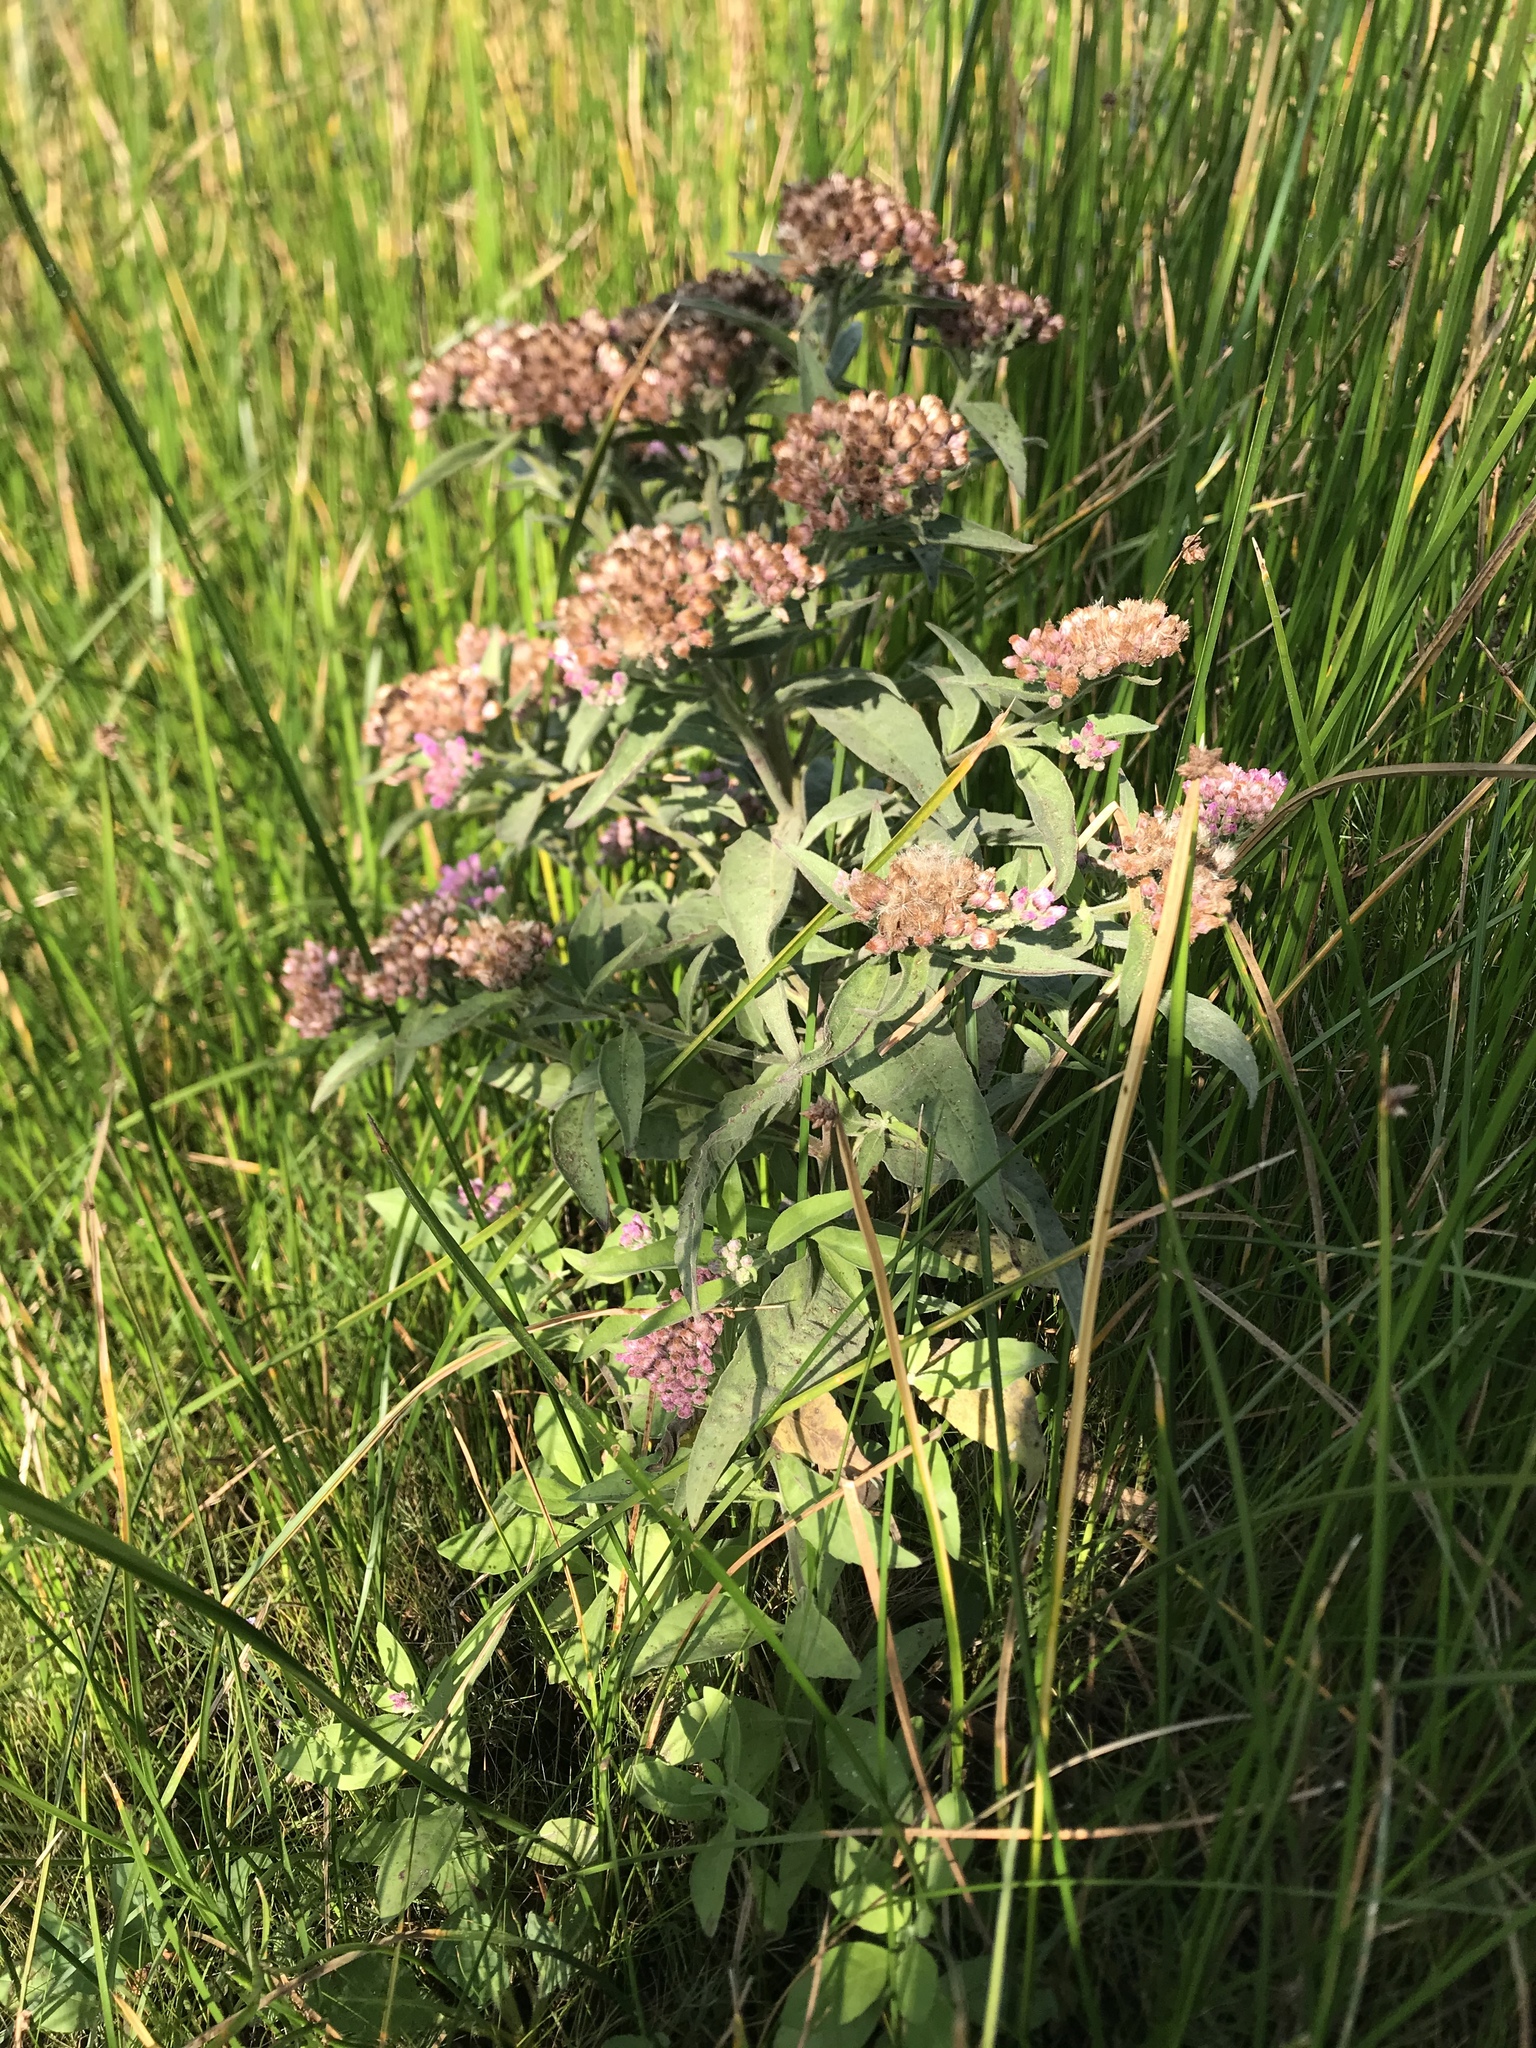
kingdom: Plantae
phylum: Tracheophyta
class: Magnoliopsida
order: Asterales
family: Asteraceae
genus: Pluchea
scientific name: Pluchea odorata
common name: Saltmarsh fleabane
